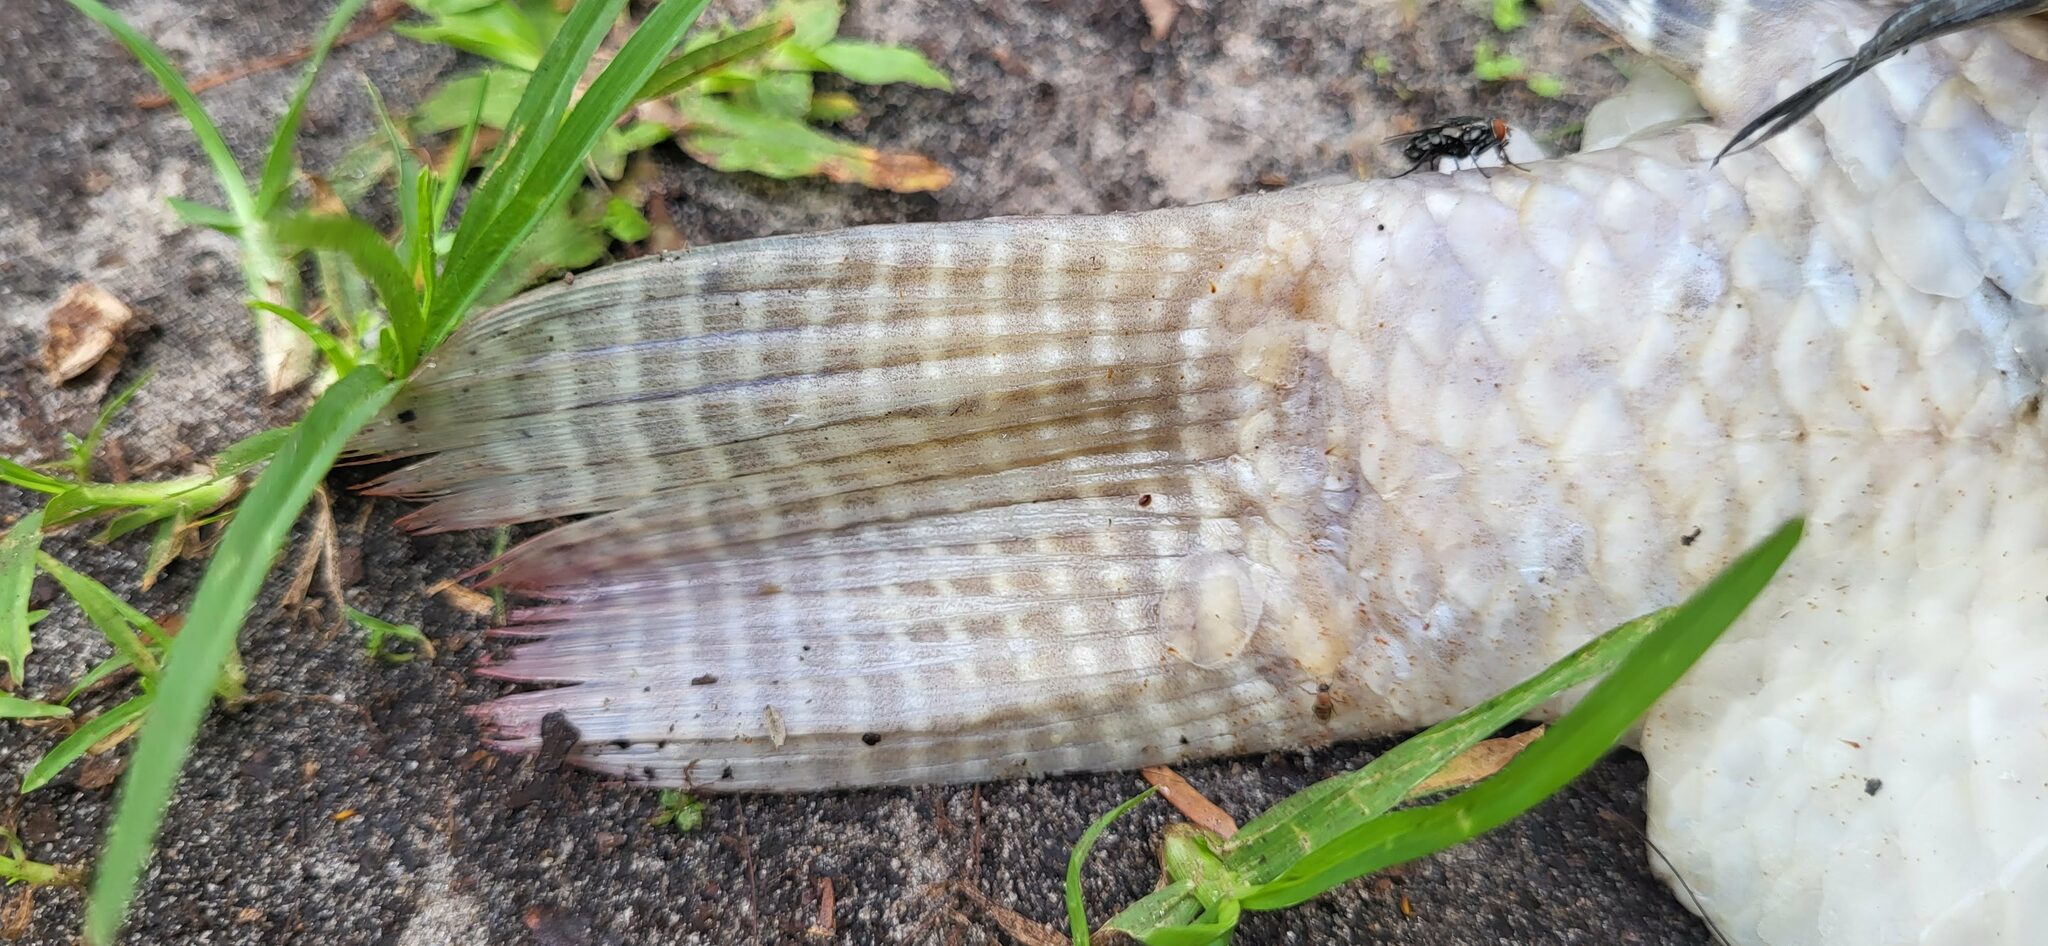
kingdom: Animalia
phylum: Chordata
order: Perciformes
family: Cichlidae
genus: Oreochromis
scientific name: Oreochromis niloticus
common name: Nile tilapia
